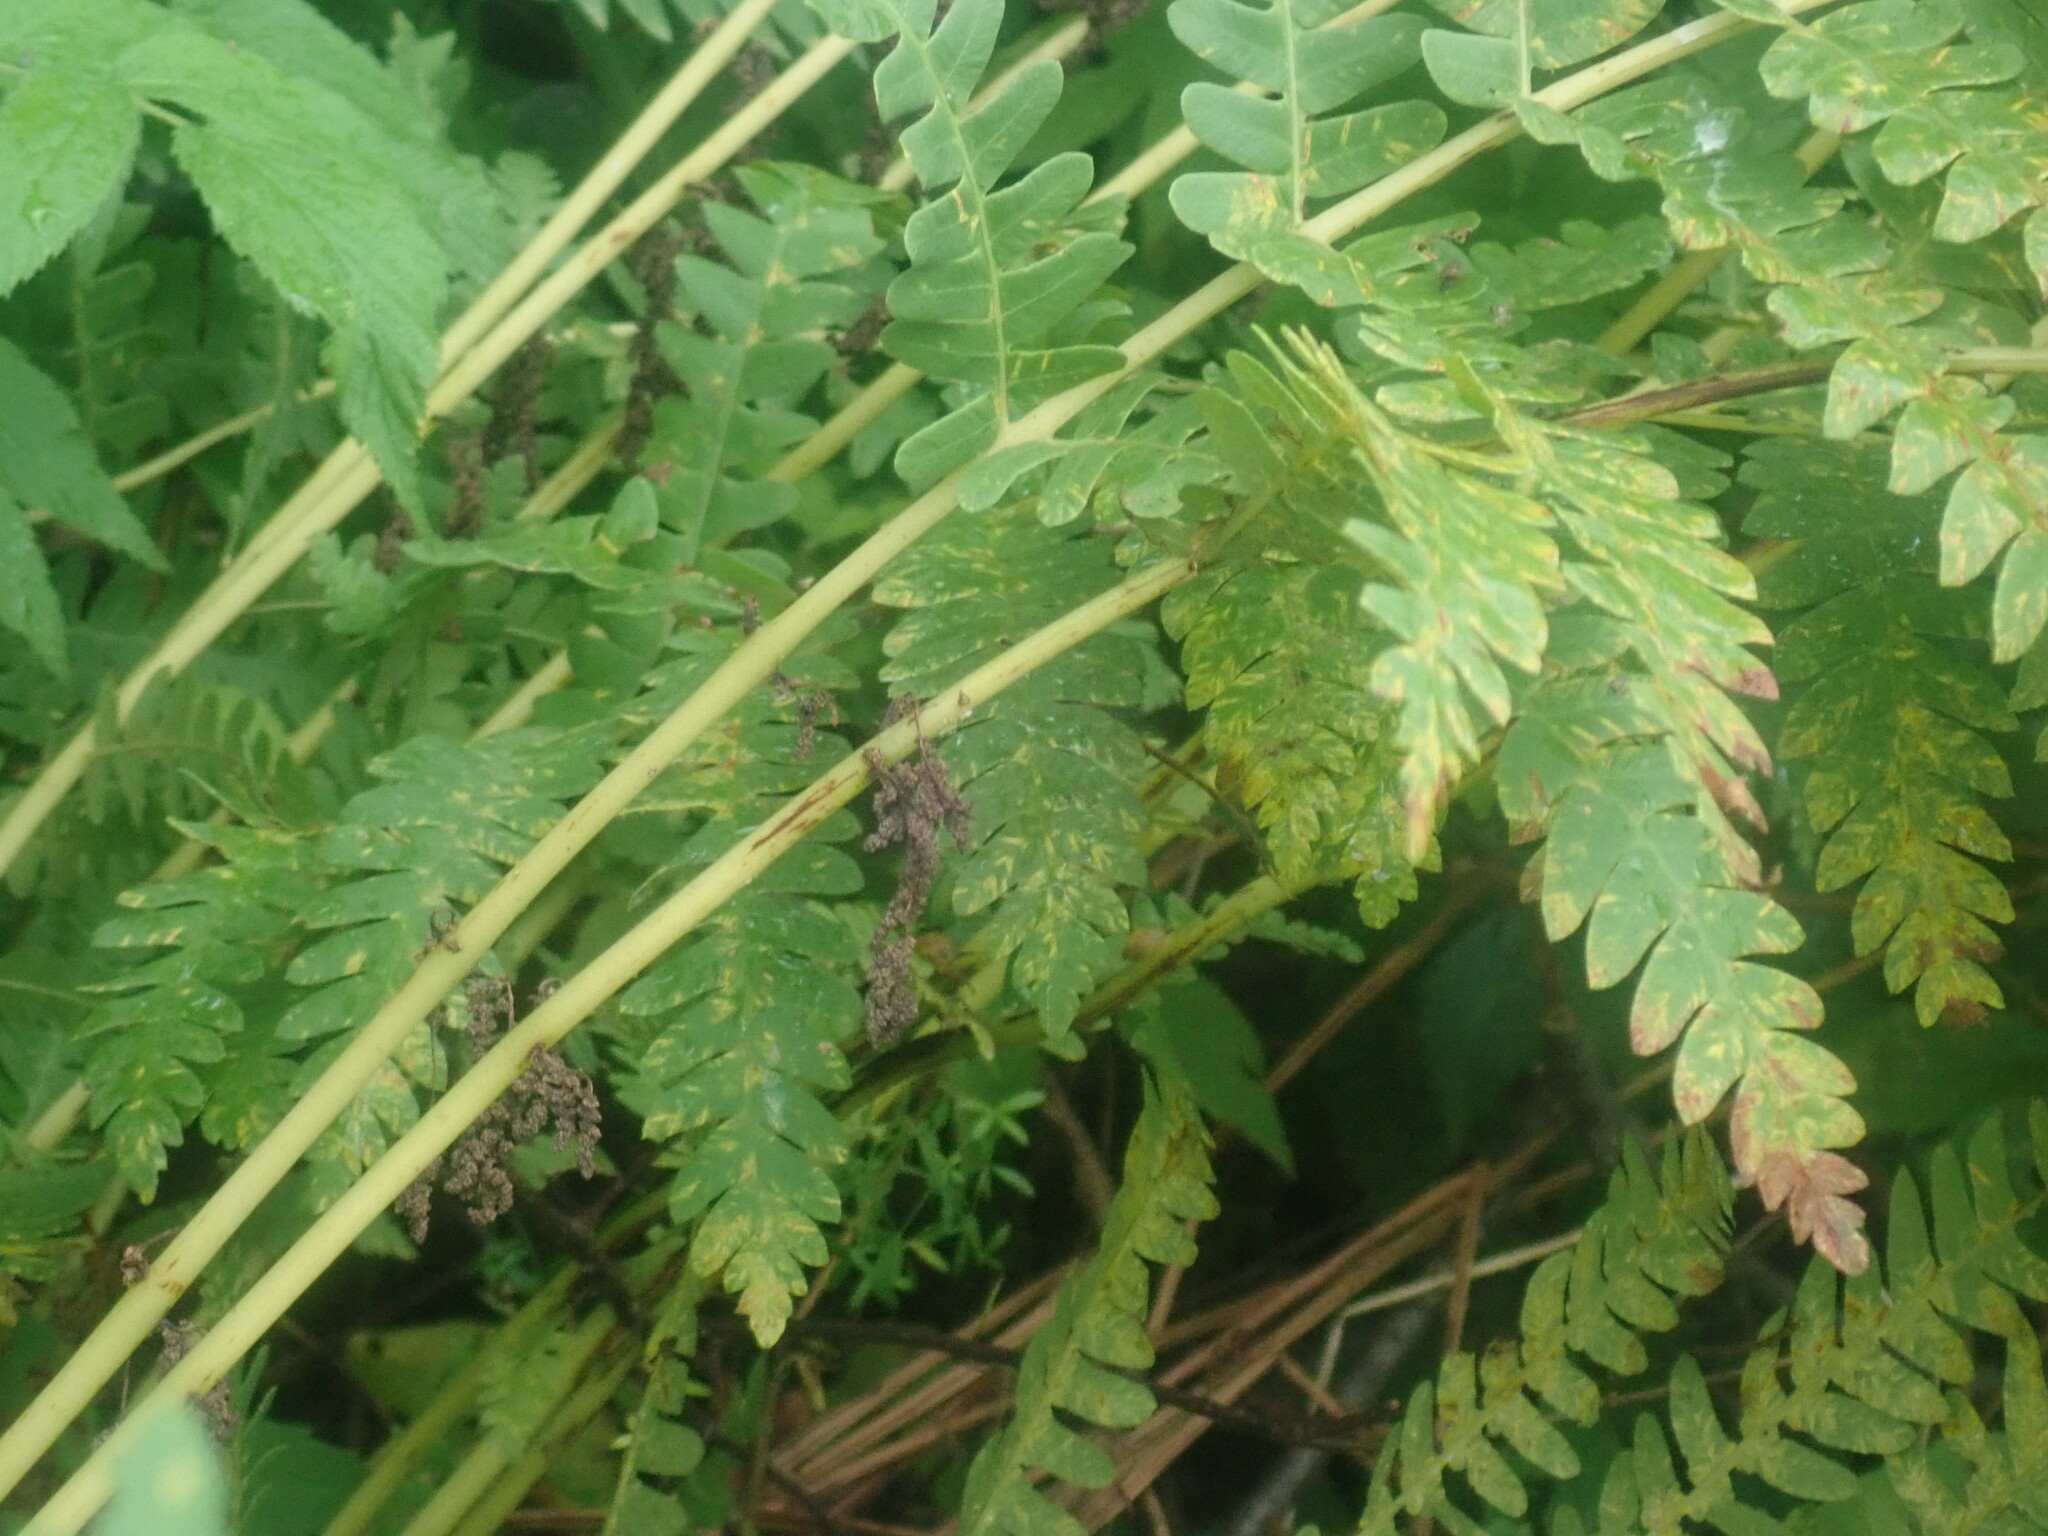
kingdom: Plantae
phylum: Tracheophyta
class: Polypodiopsida
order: Osmundales
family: Osmundaceae
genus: Claytosmunda
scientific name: Claytosmunda claytoniana
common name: Clayton's fern
